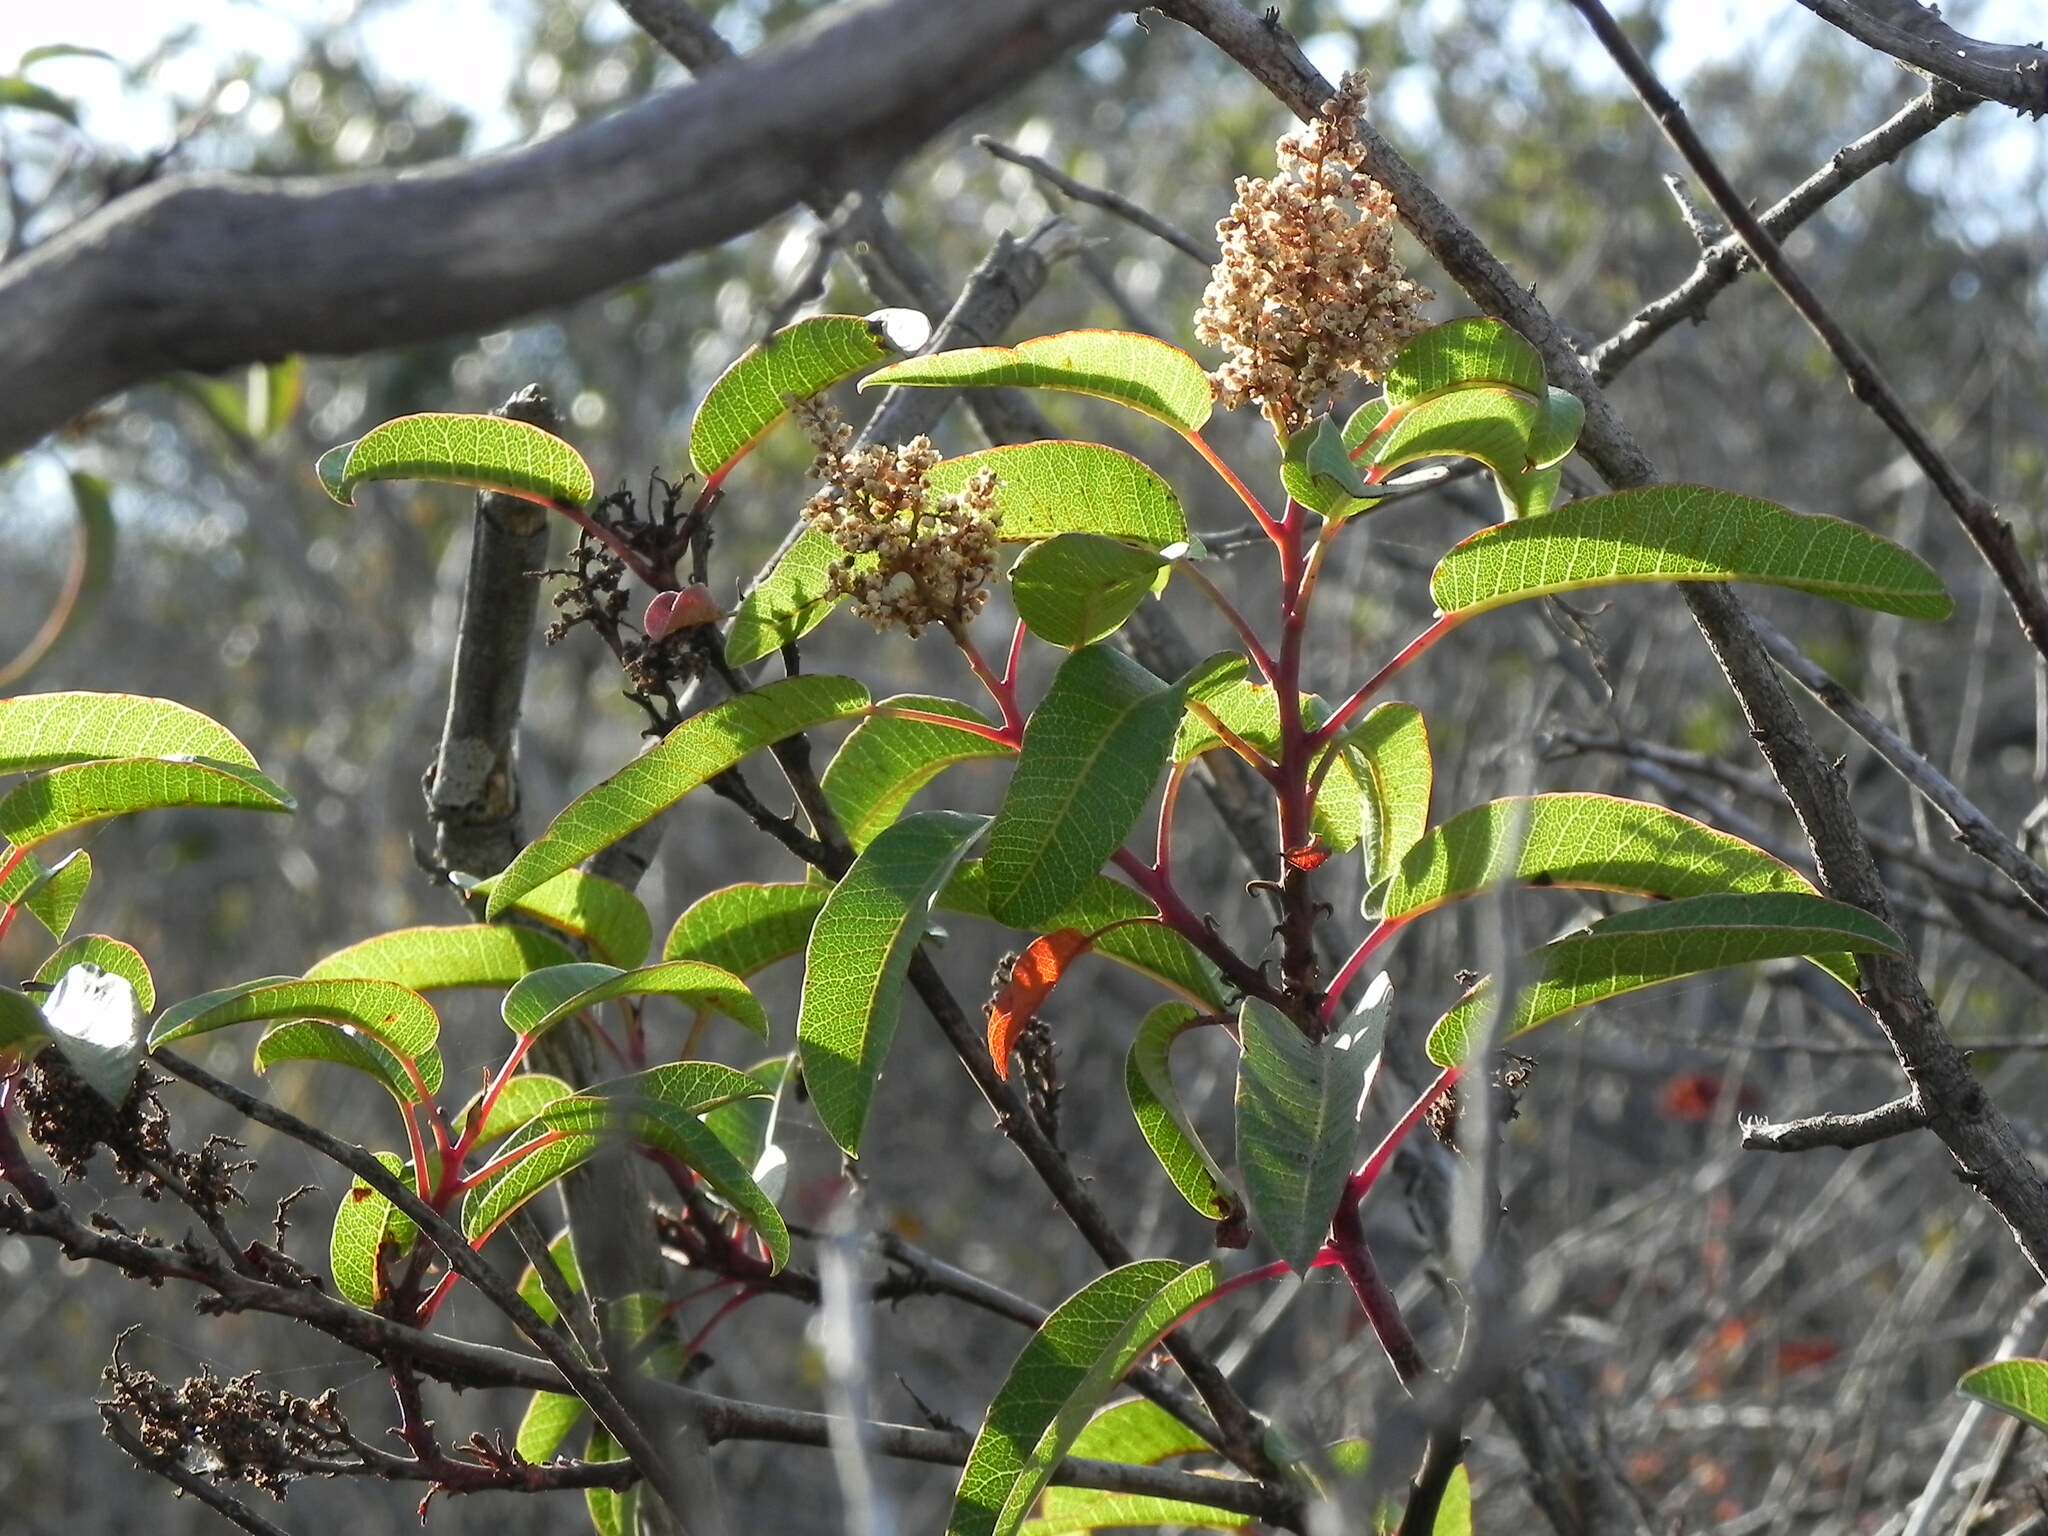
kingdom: Plantae
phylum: Tracheophyta
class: Magnoliopsida
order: Sapindales
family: Anacardiaceae
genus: Malosma
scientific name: Malosma laurina
